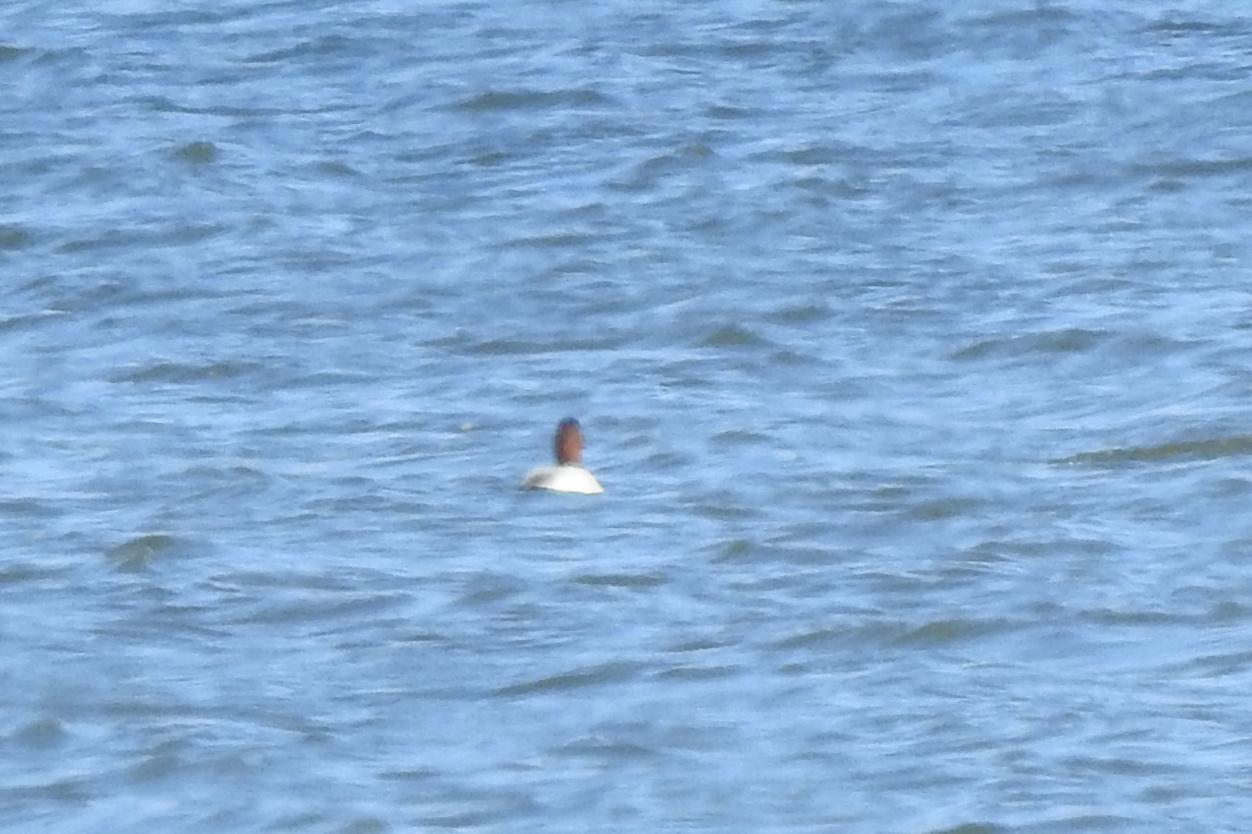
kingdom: Animalia
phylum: Chordata
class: Aves
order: Anseriformes
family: Anatidae
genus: Aythya
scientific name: Aythya valisineria
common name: Canvasback
